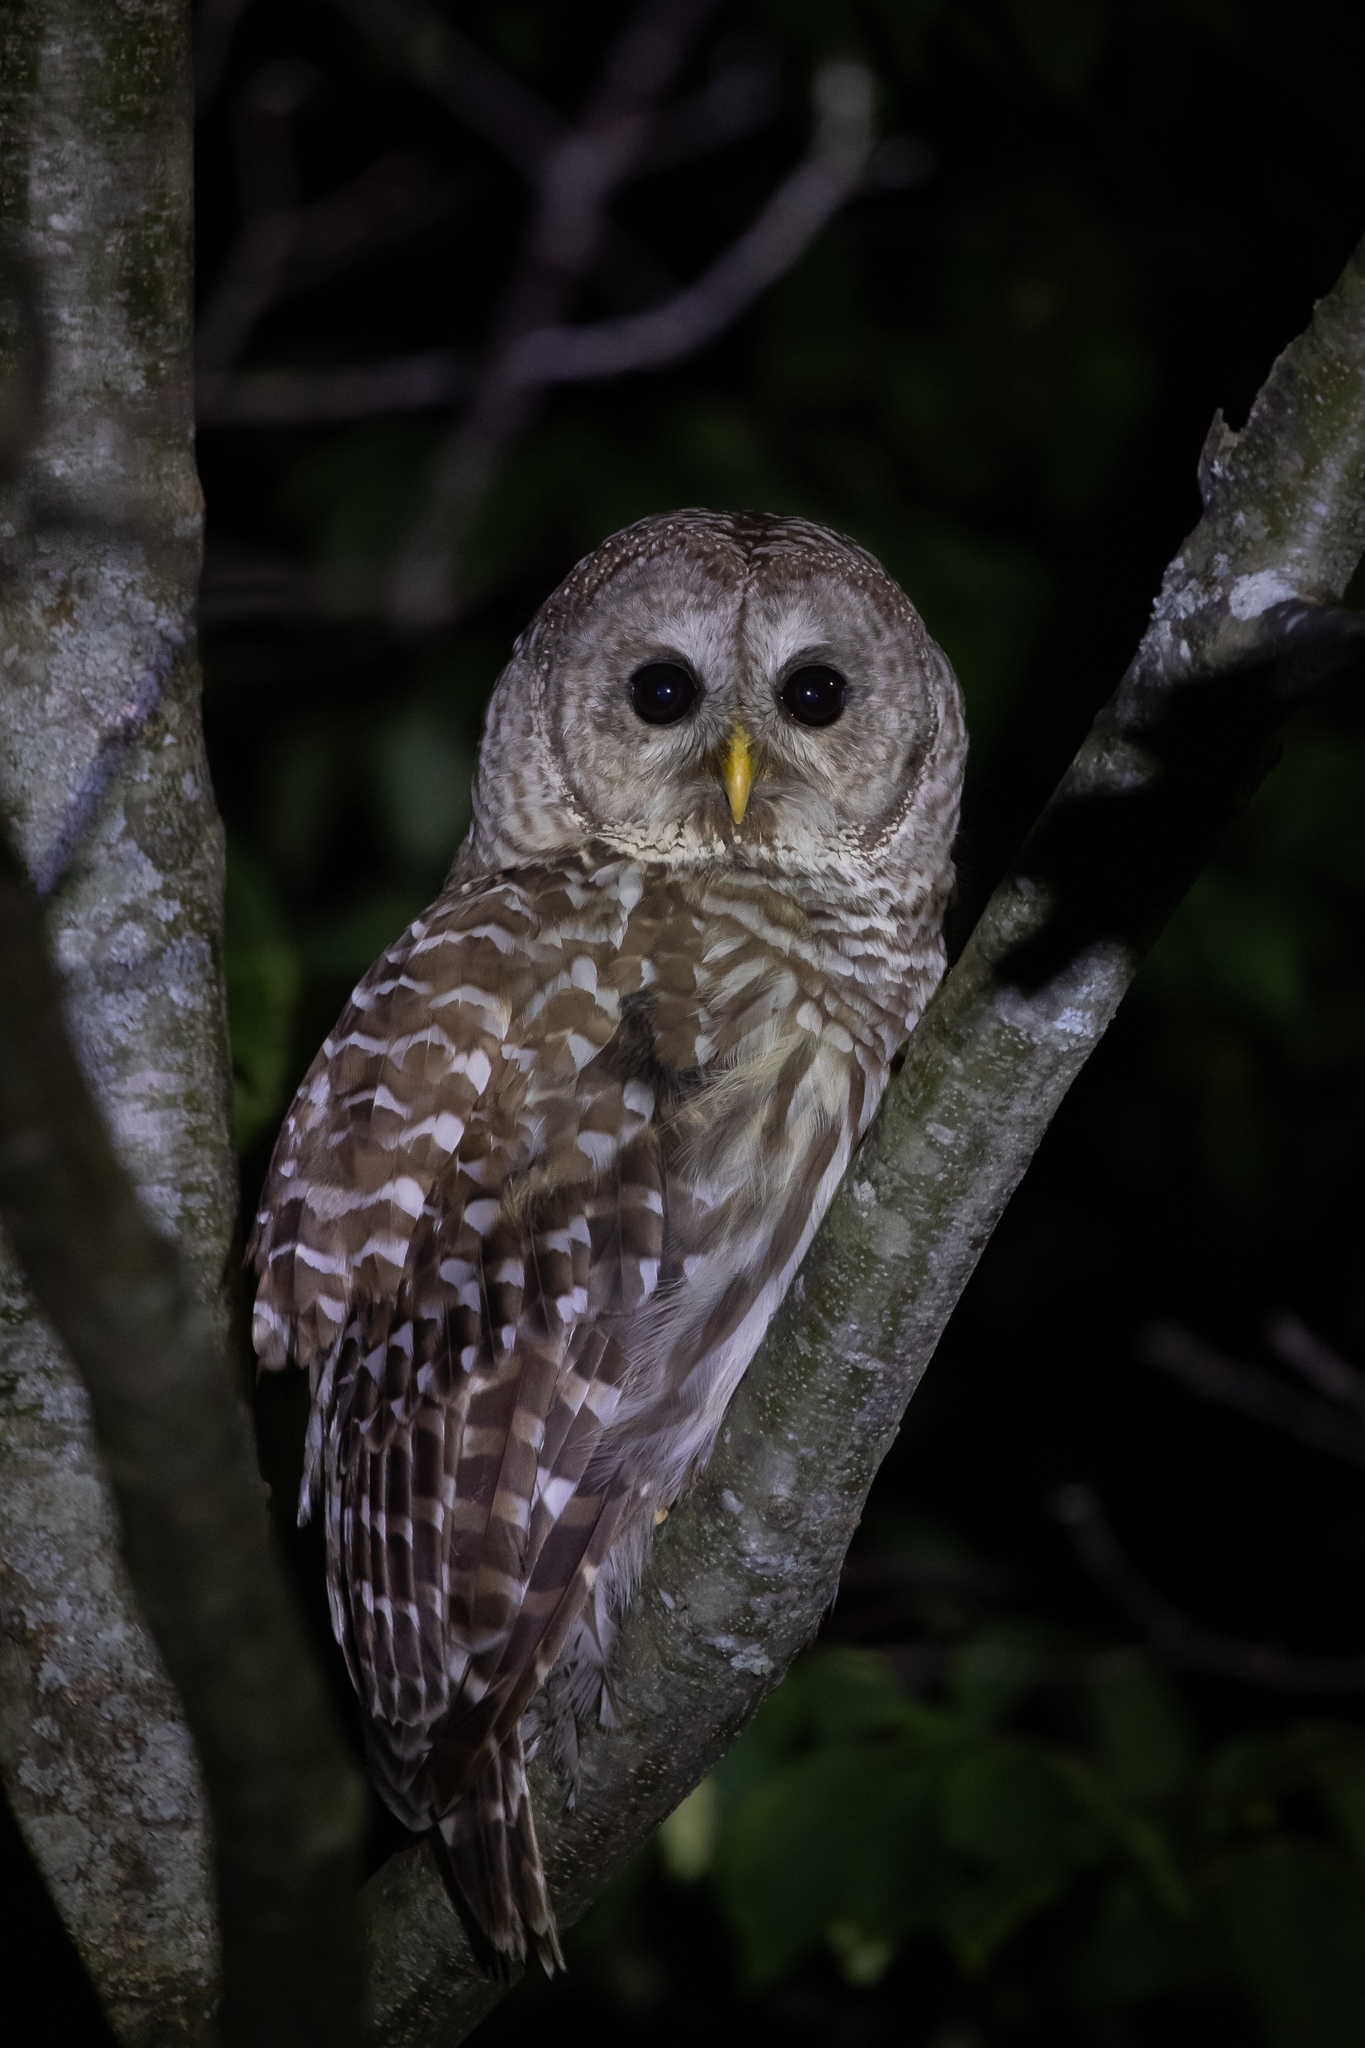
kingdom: Animalia
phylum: Chordata
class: Aves
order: Strigiformes
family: Strigidae
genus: Strix
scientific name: Strix varia
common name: Barred owl
